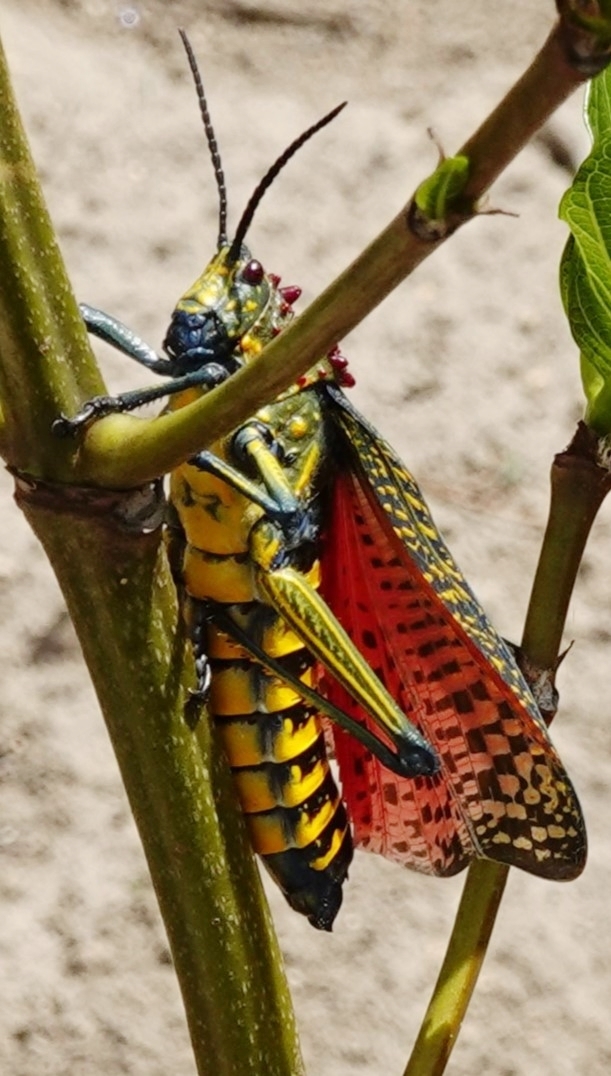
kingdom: Animalia
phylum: Arthropoda
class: Insecta
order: Orthoptera
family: Pyrgomorphidae
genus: Phymateus
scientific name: Phymateus saxosus
